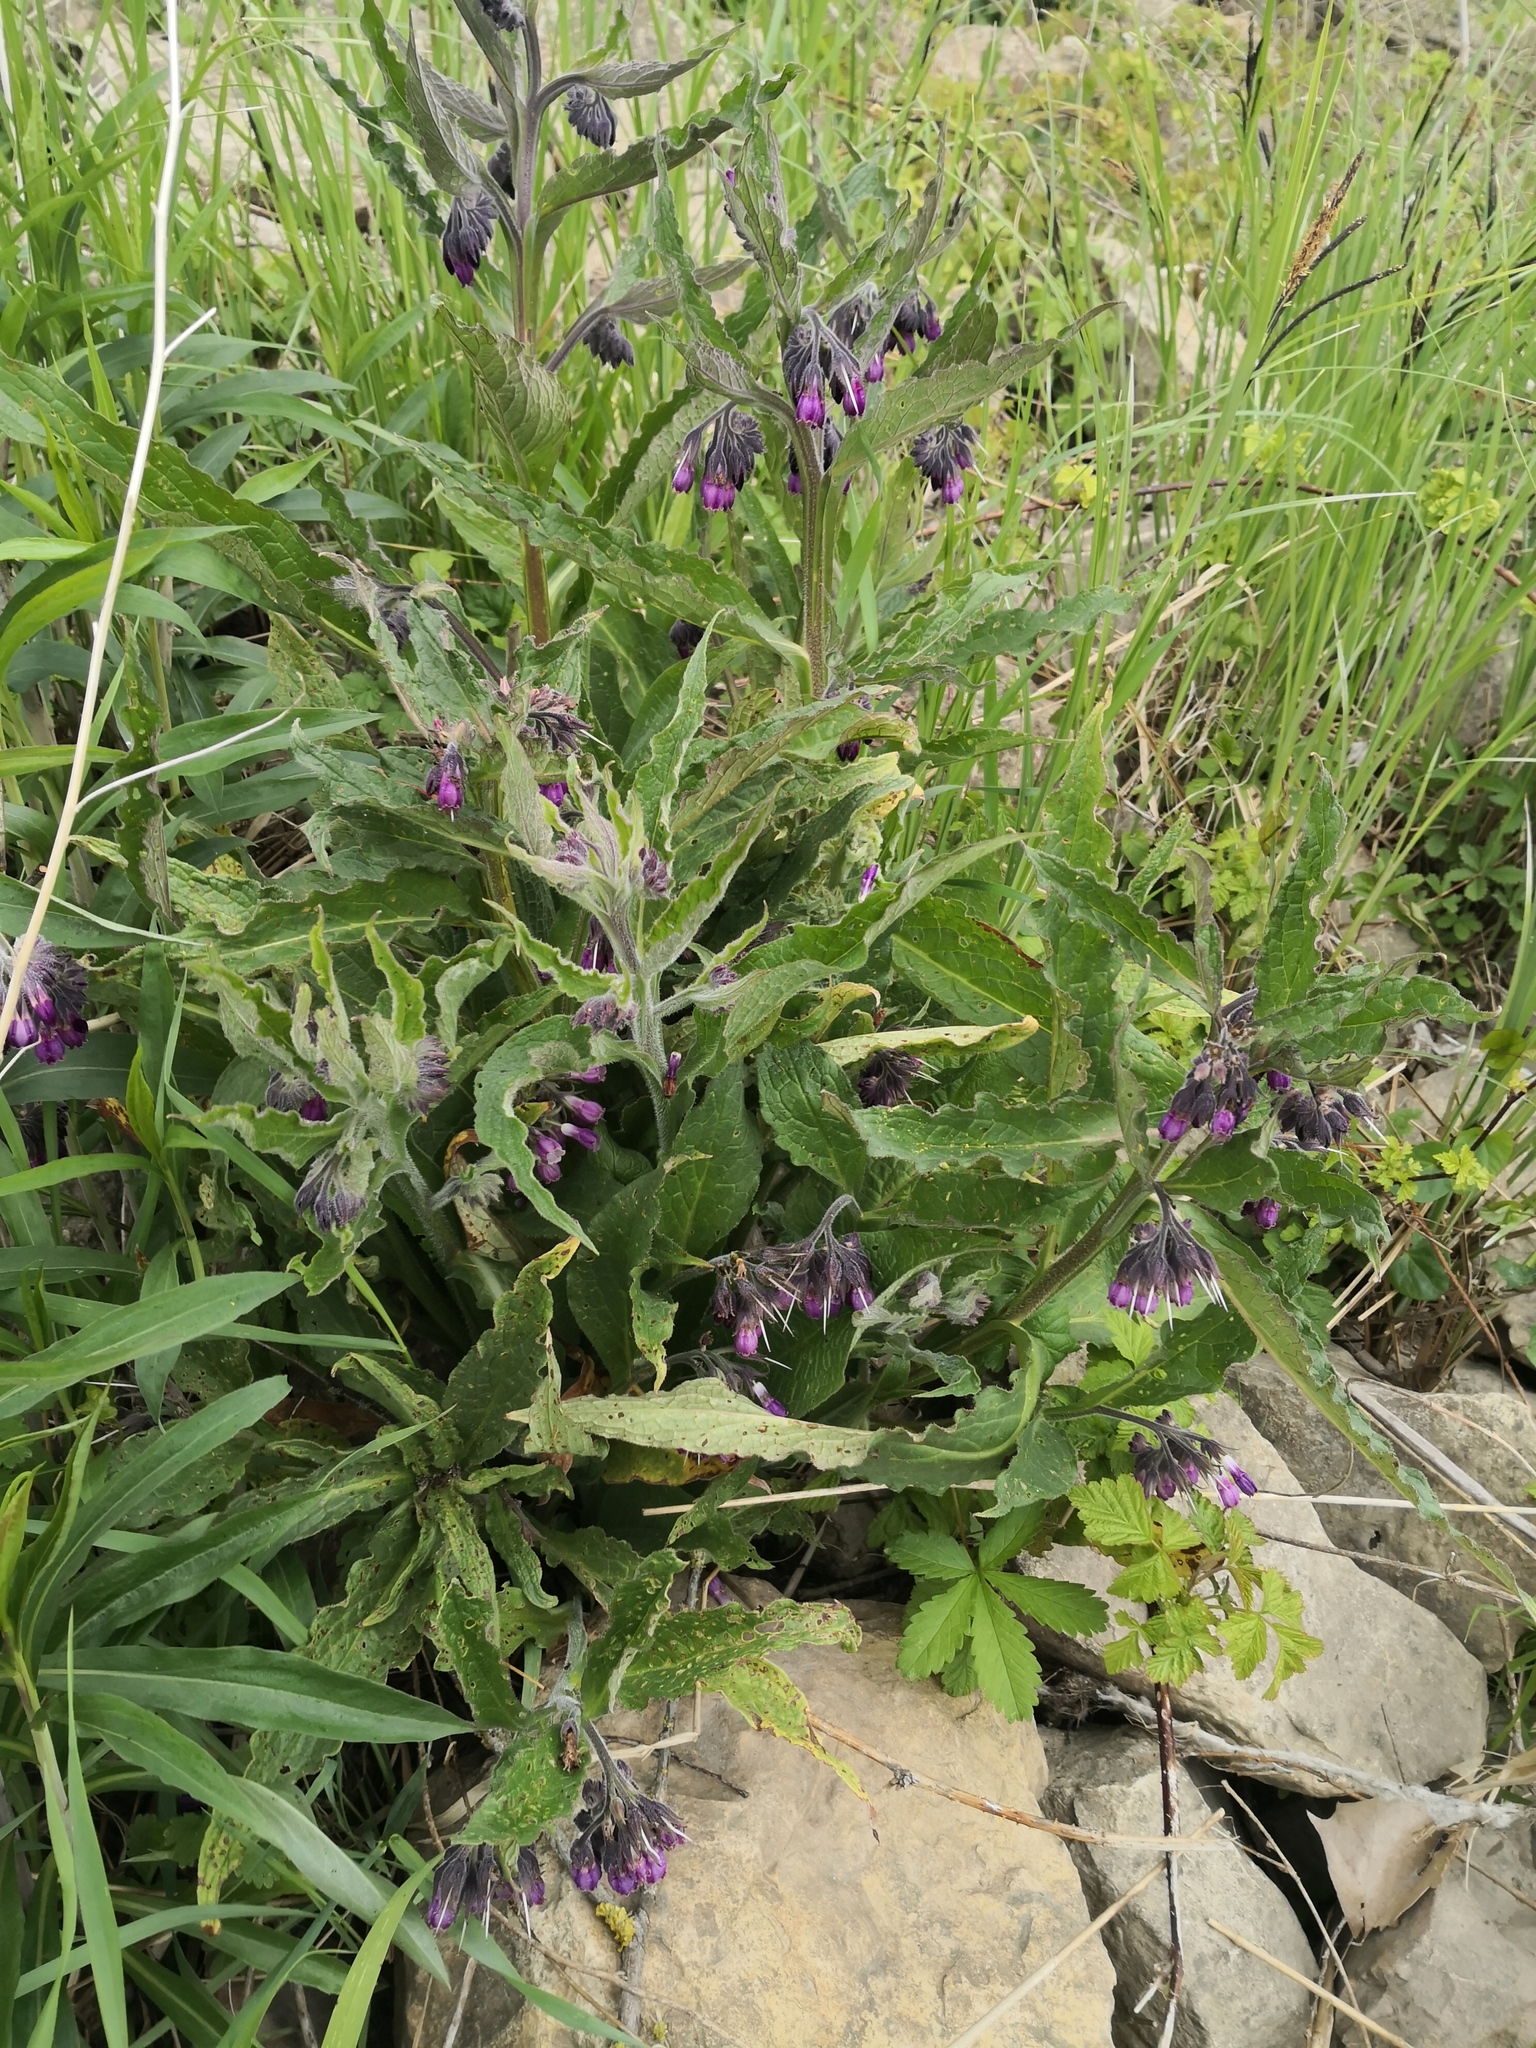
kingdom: Plantae
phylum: Tracheophyta
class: Magnoliopsida
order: Boraginales
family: Boraginaceae
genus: Symphytum
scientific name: Symphytum officinale
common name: Common comfrey
